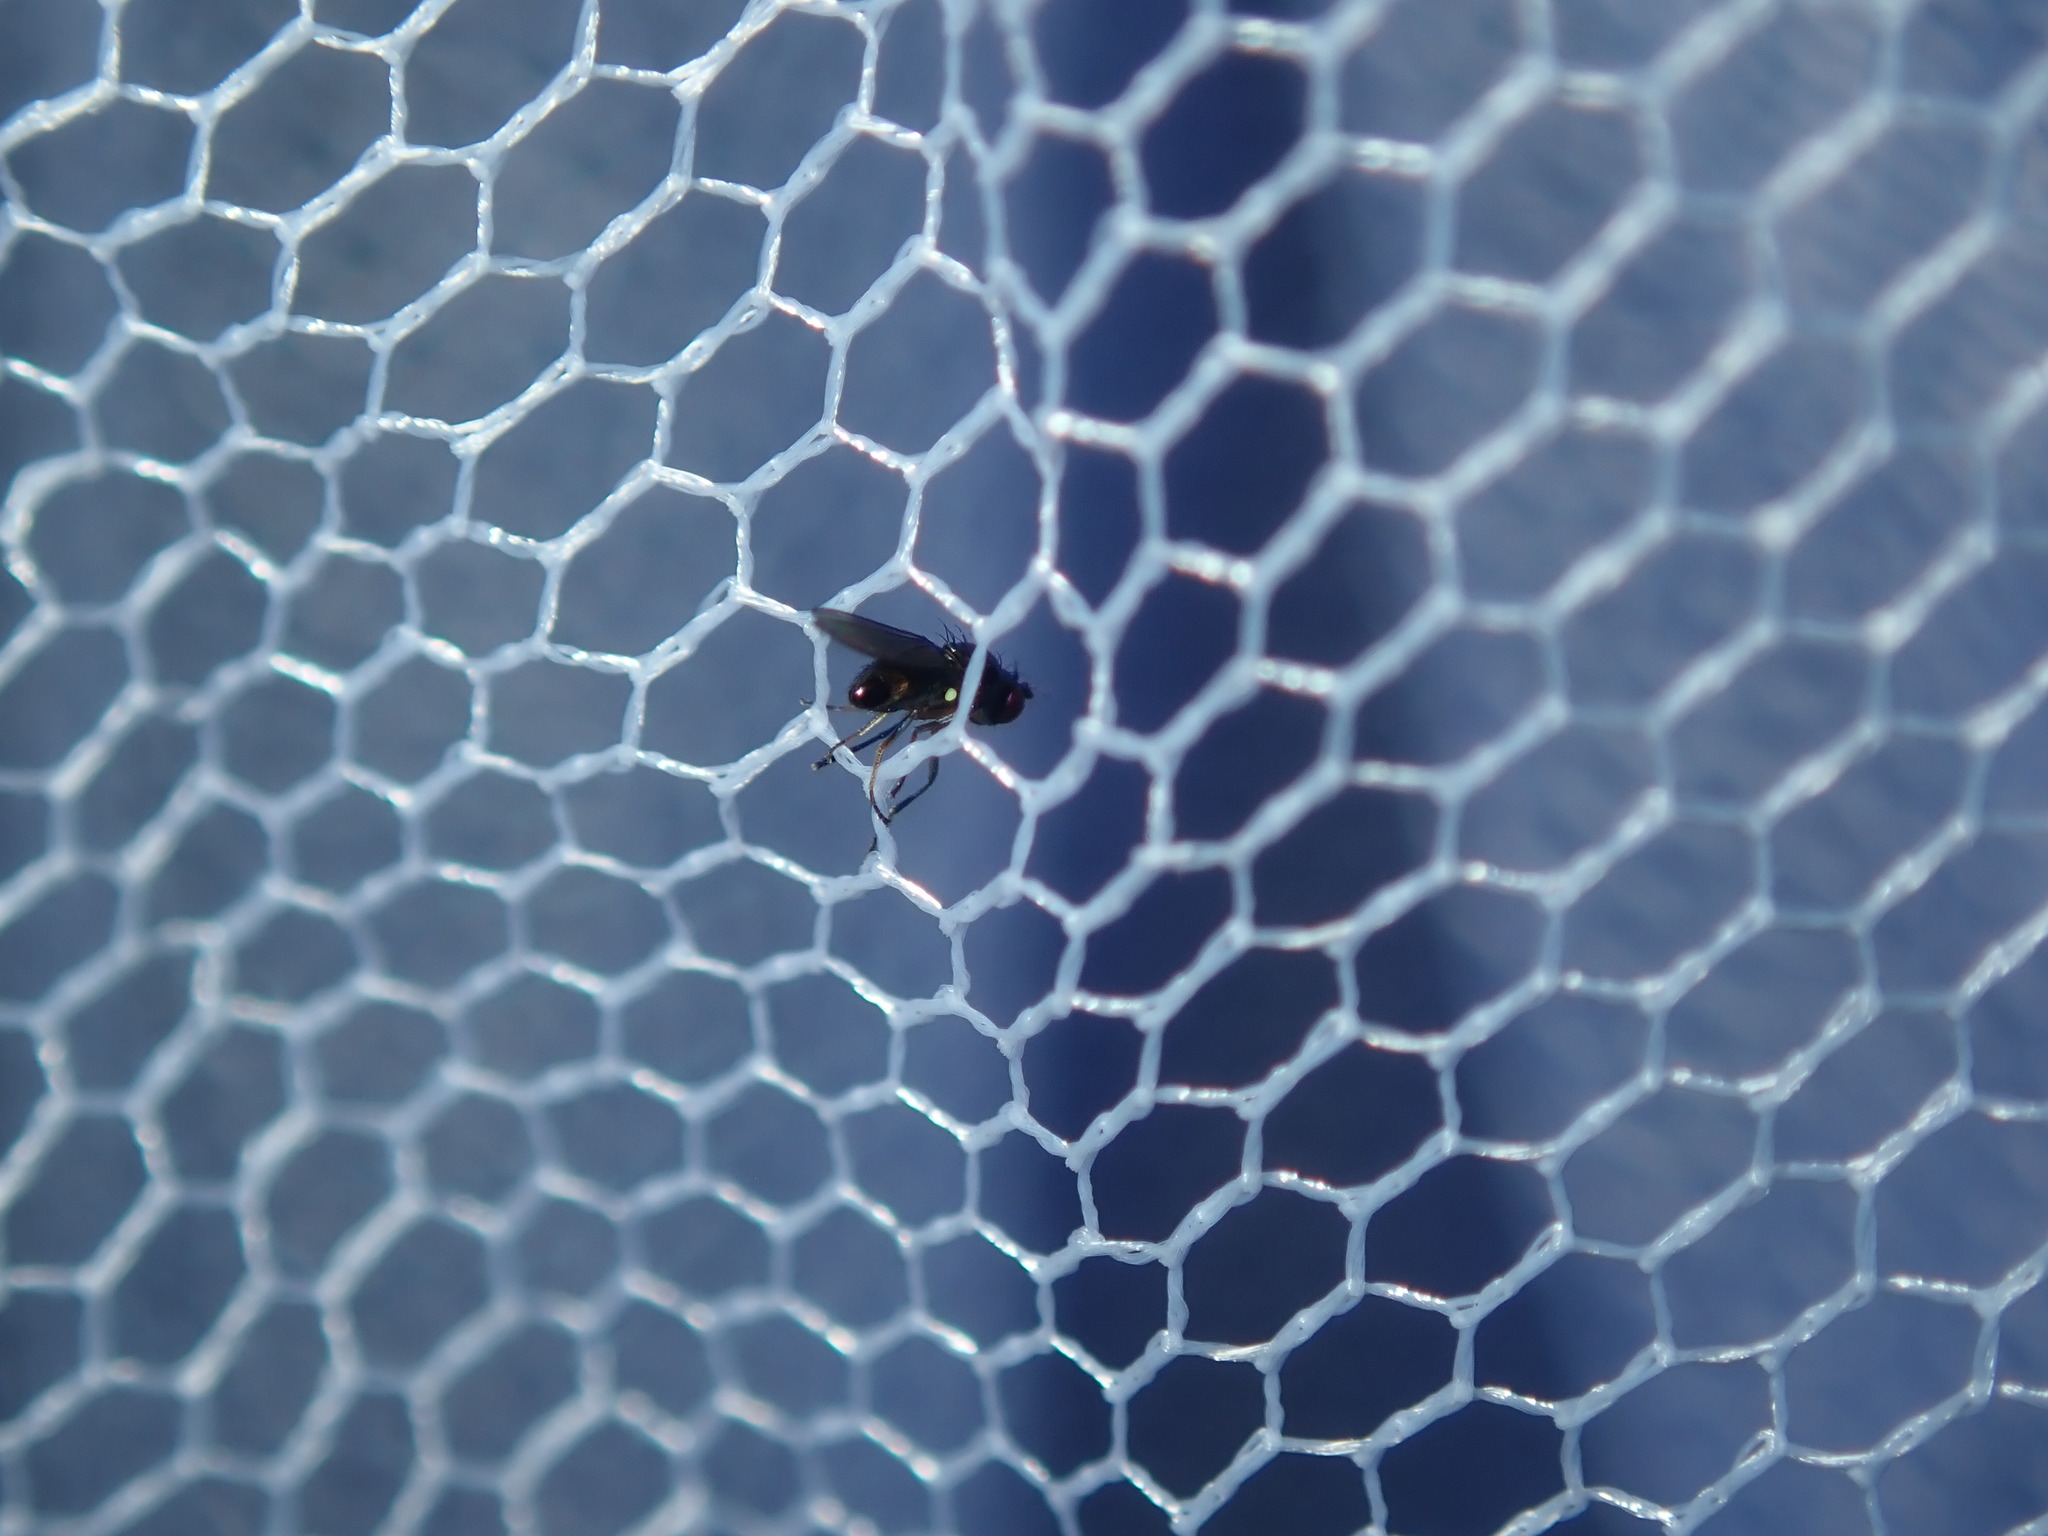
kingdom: Animalia
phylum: Arthropoda
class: Insecta
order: Diptera
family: Ephydridae
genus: Hydrellia
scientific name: Hydrellia tritici
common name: Shore fly
